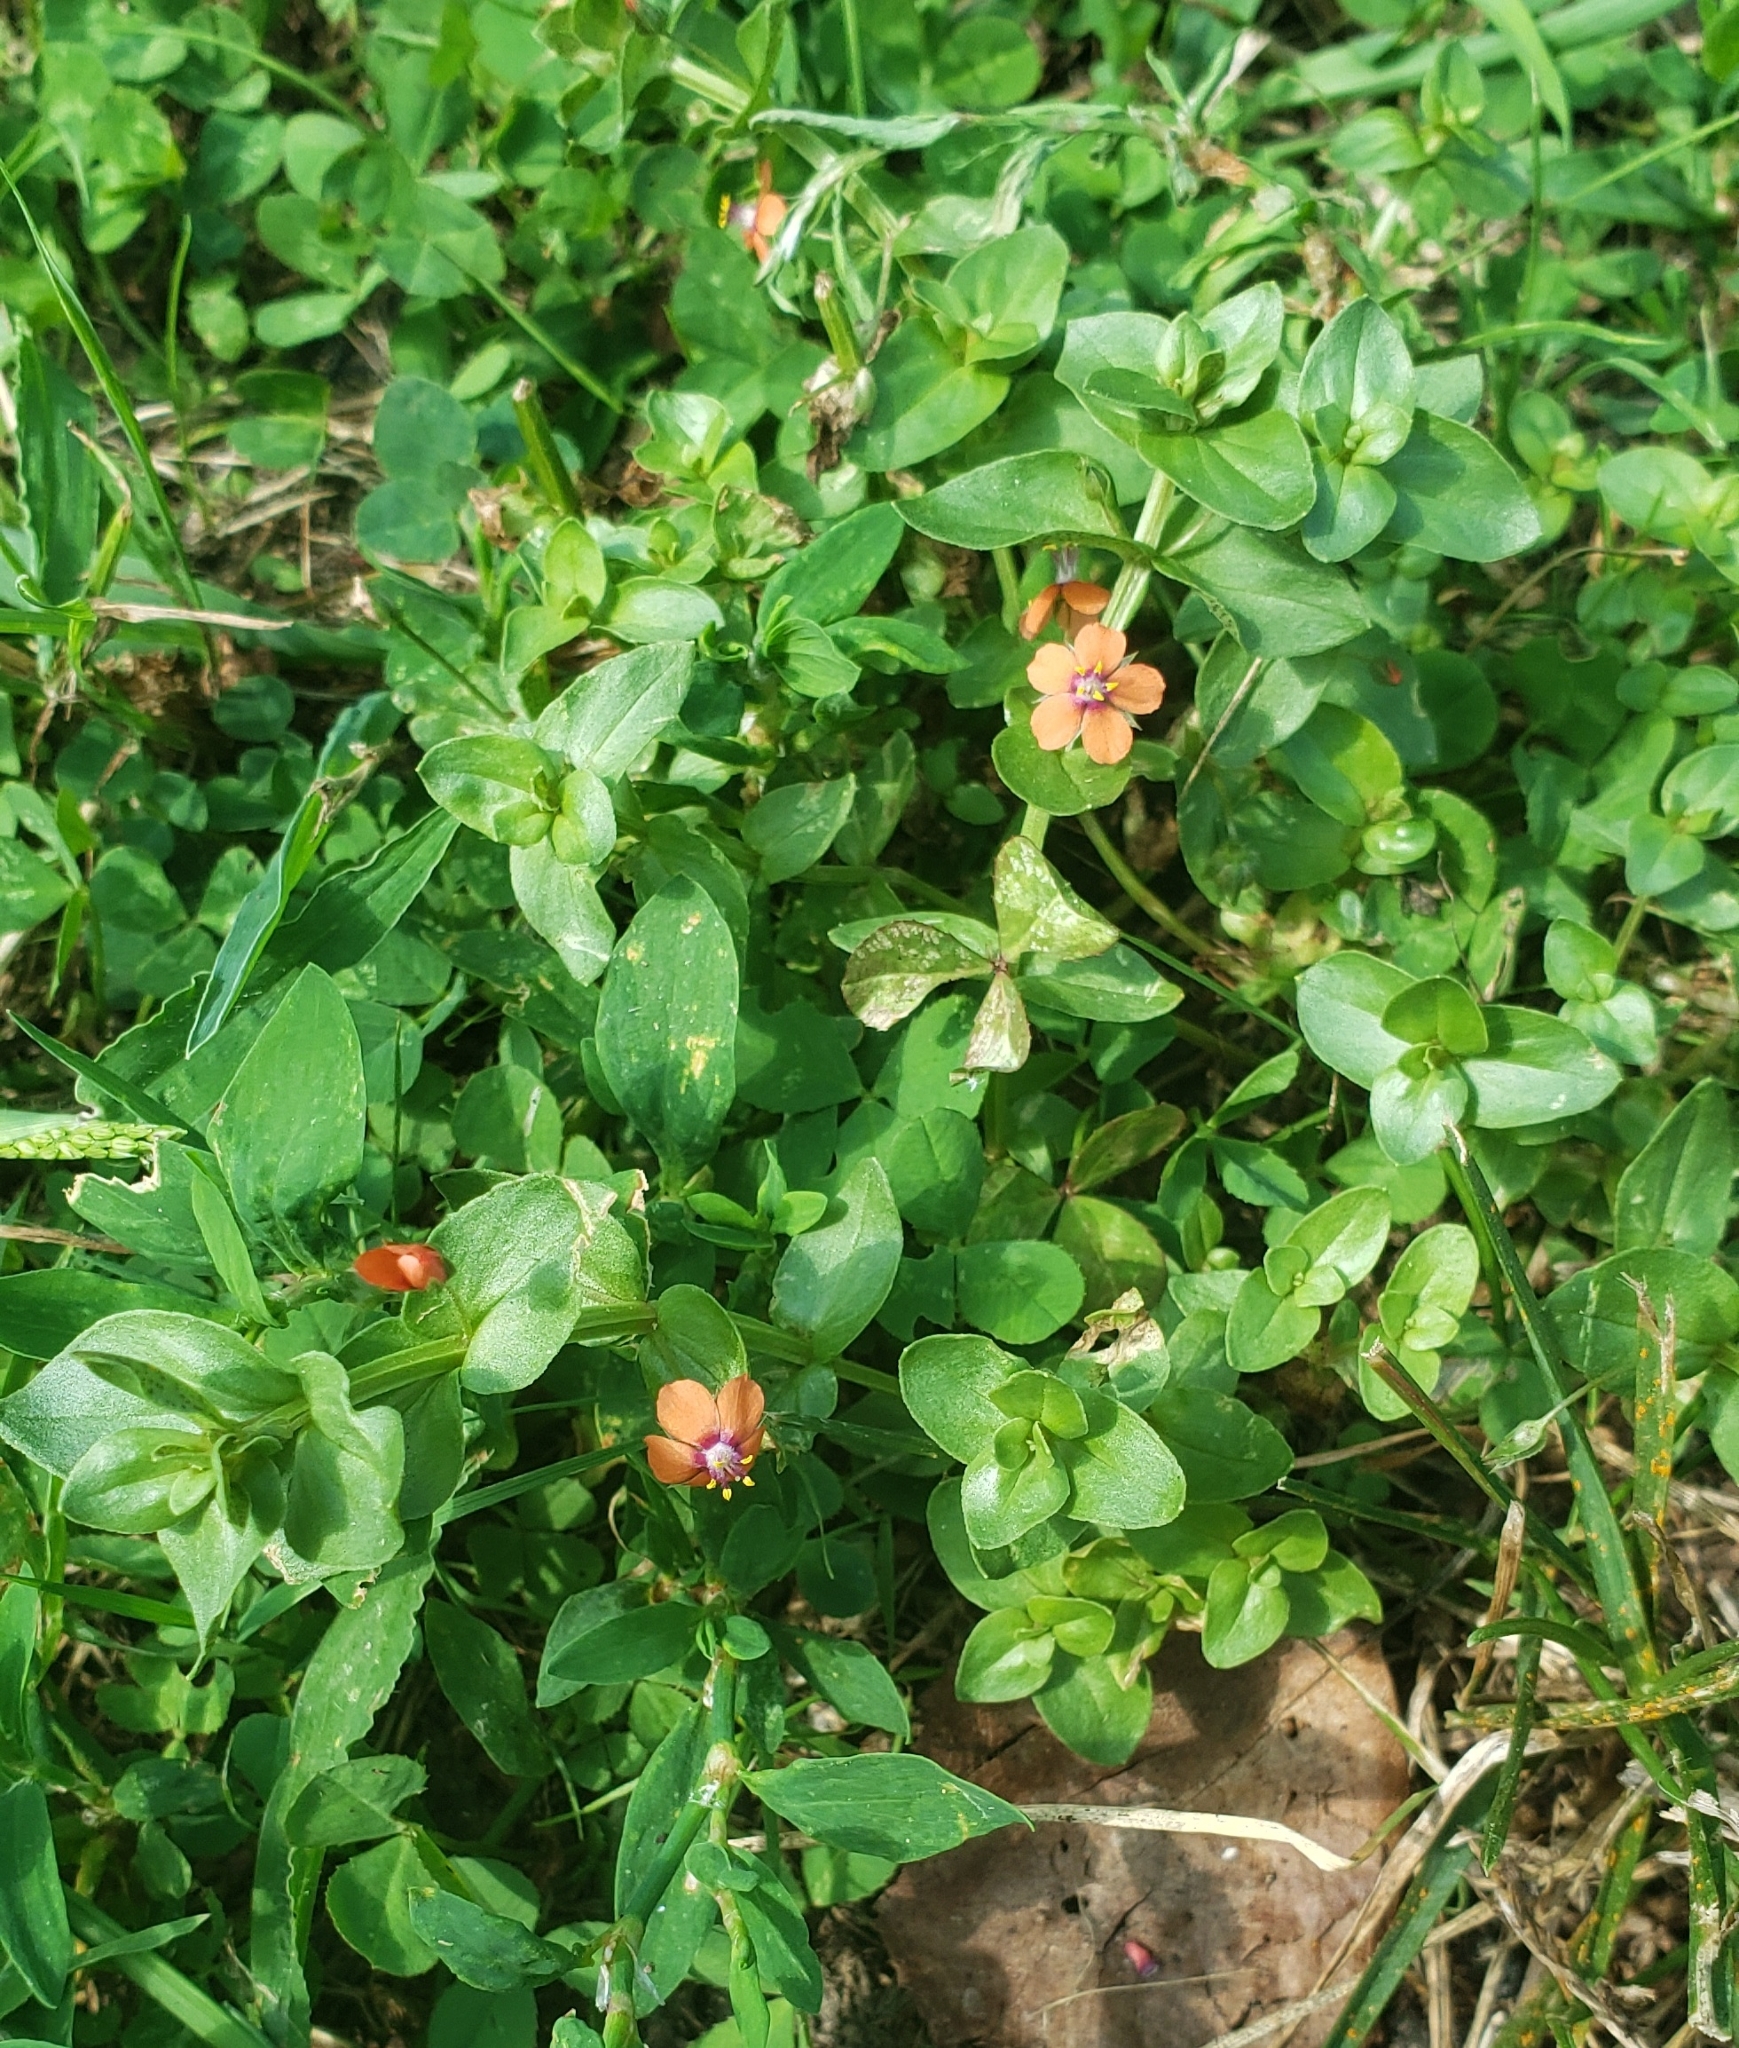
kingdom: Plantae
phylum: Tracheophyta
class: Magnoliopsida
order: Ericales
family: Primulaceae
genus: Lysimachia
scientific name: Lysimachia arvensis
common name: Scarlet pimpernel
